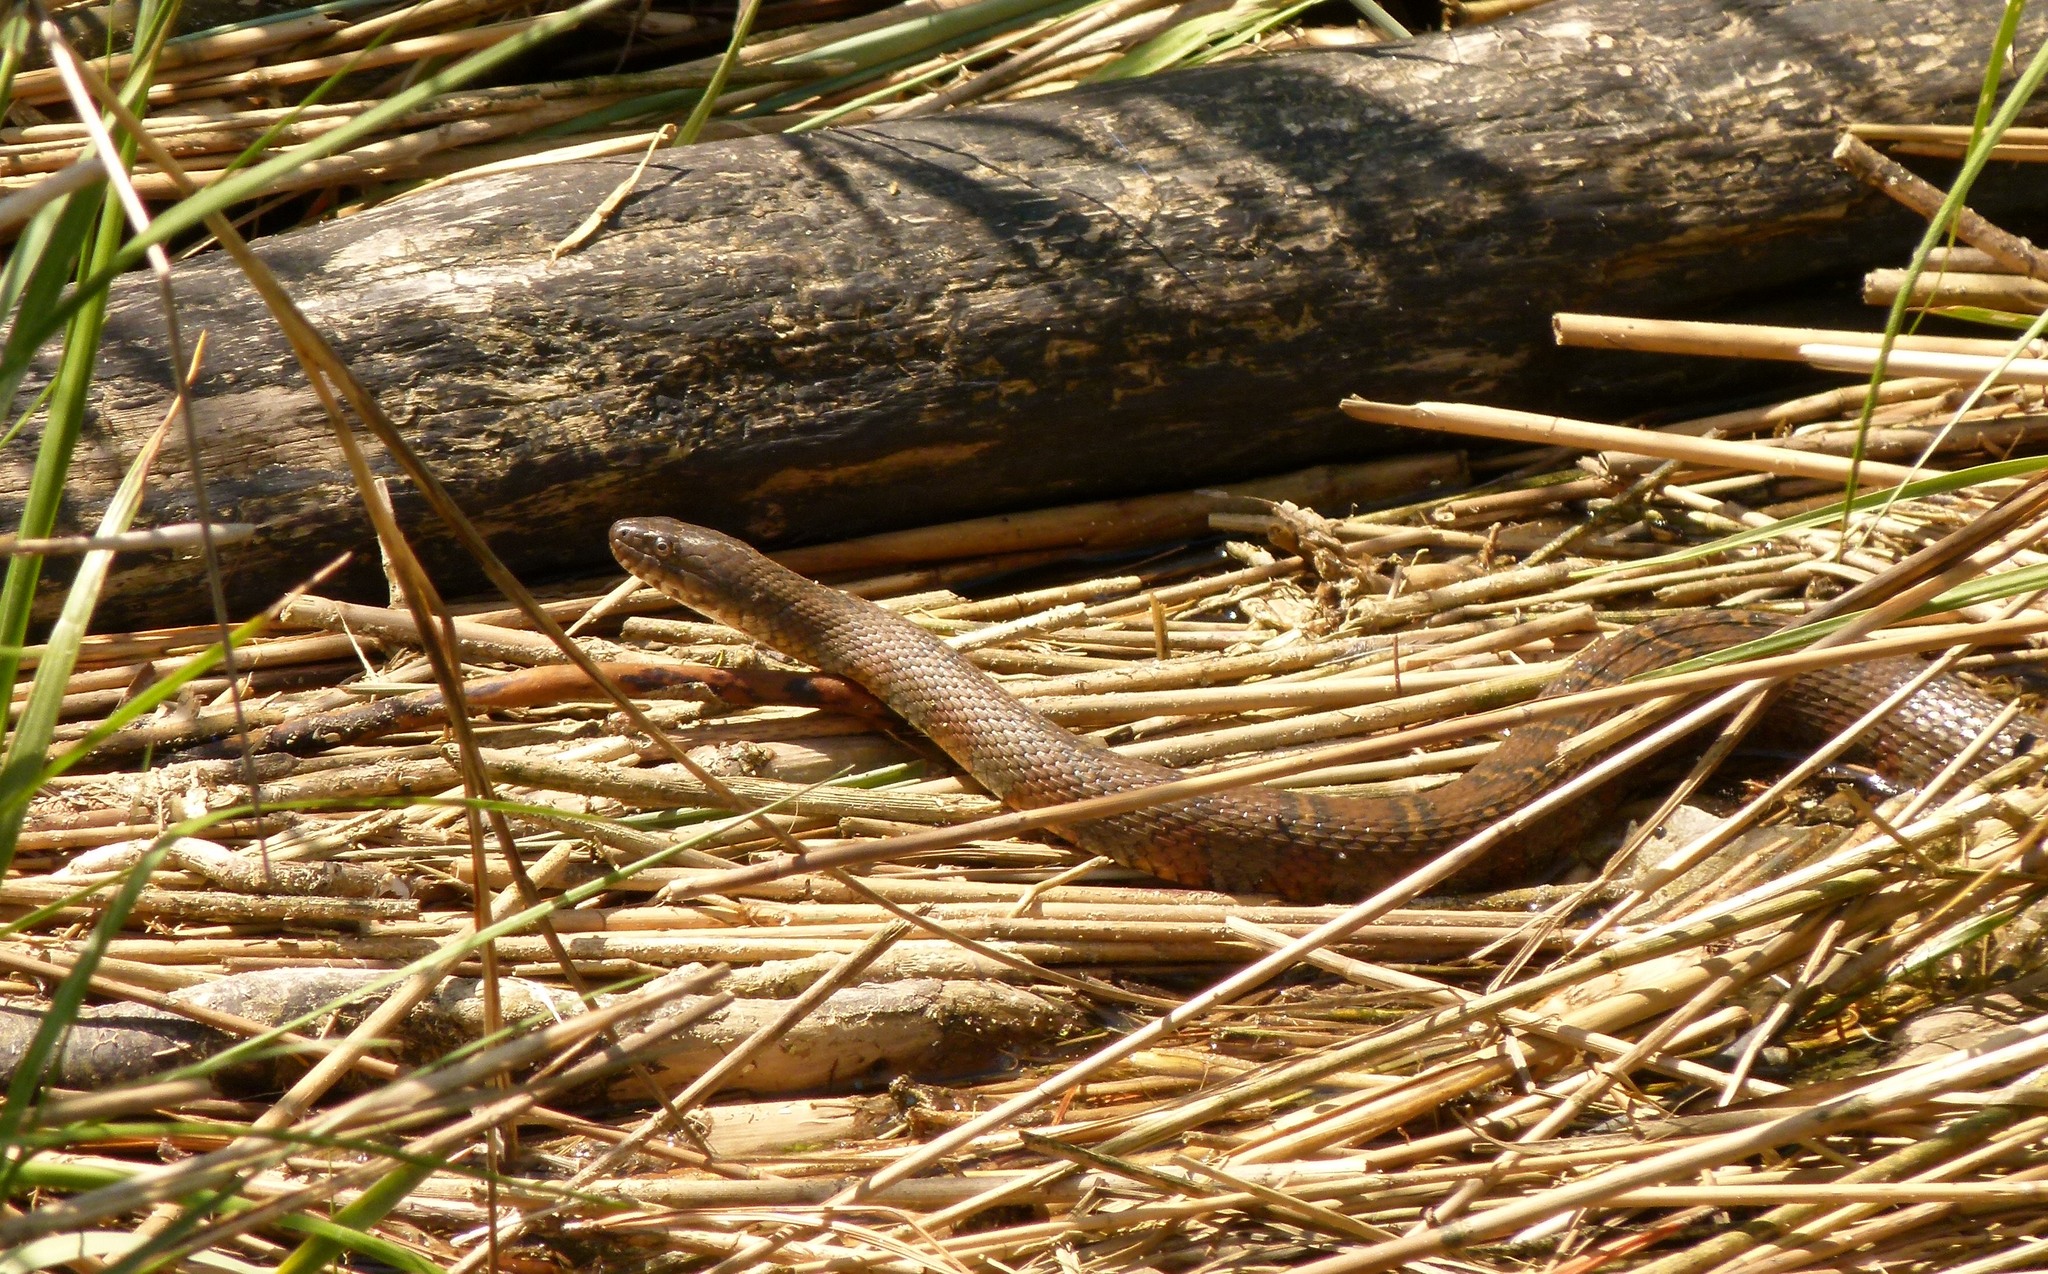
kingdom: Animalia
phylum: Chordata
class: Squamata
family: Colubridae
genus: Nerodia
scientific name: Nerodia sipedon
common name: Northern water snake
